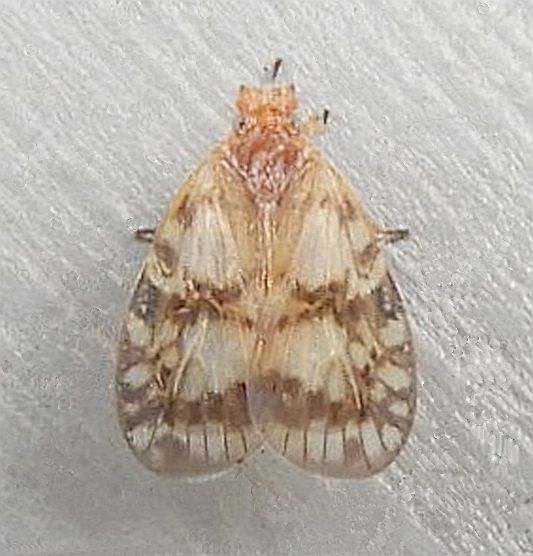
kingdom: Animalia
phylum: Arthropoda
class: Insecta
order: Hemiptera
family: Cixiidae
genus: Bothriocera
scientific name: Bothriocera drakei
